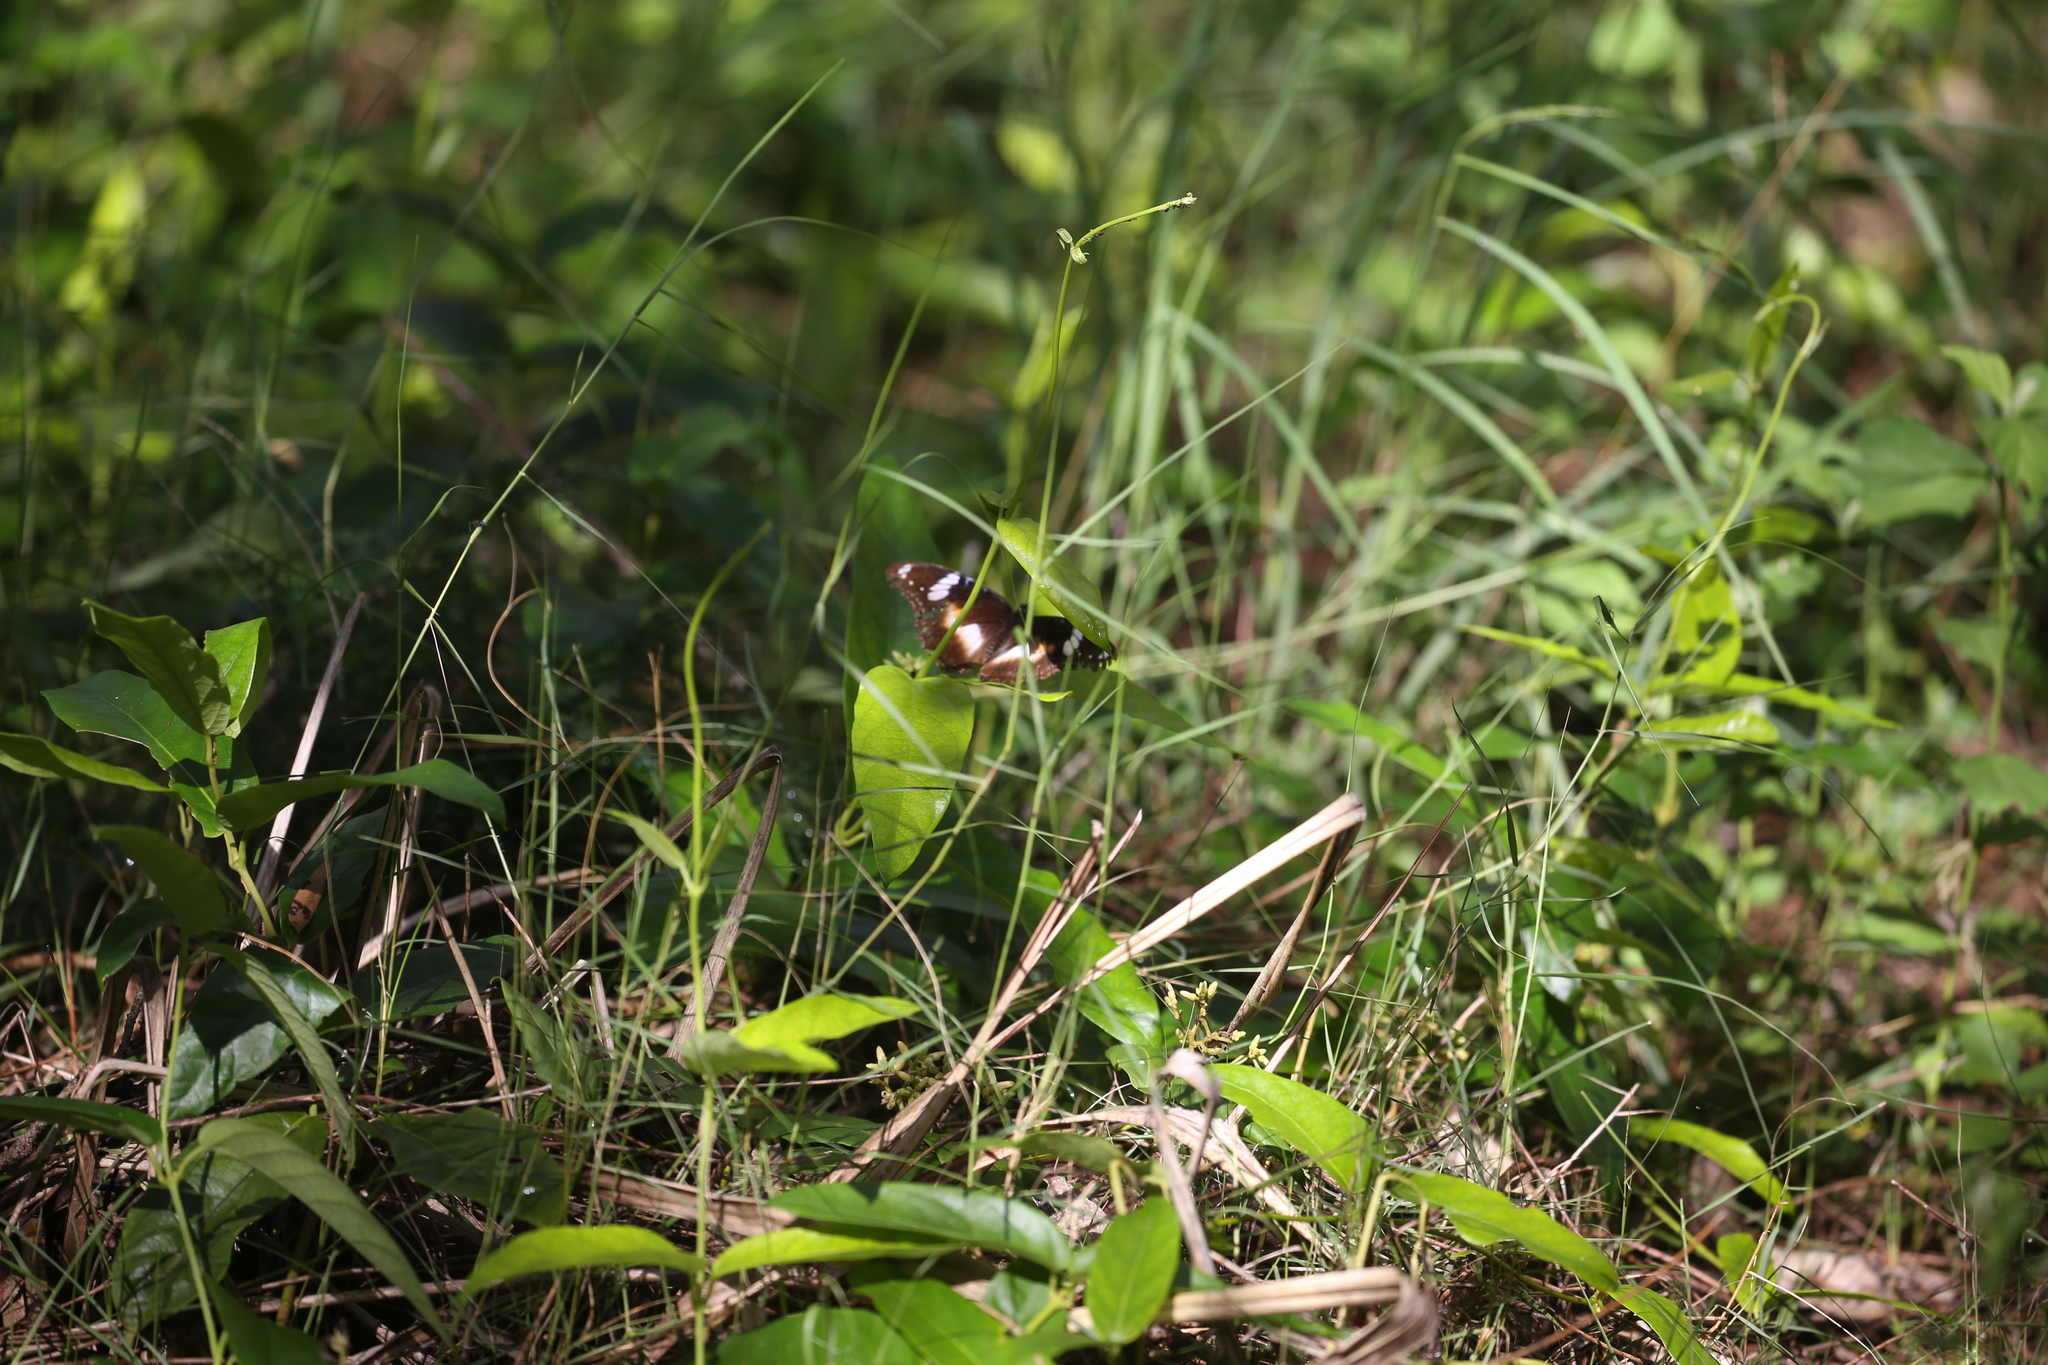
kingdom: Animalia
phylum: Arthropoda
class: Insecta
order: Lepidoptera
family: Nymphalidae
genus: Hypolimnas
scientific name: Hypolimnas bolina
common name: Great eggfly
